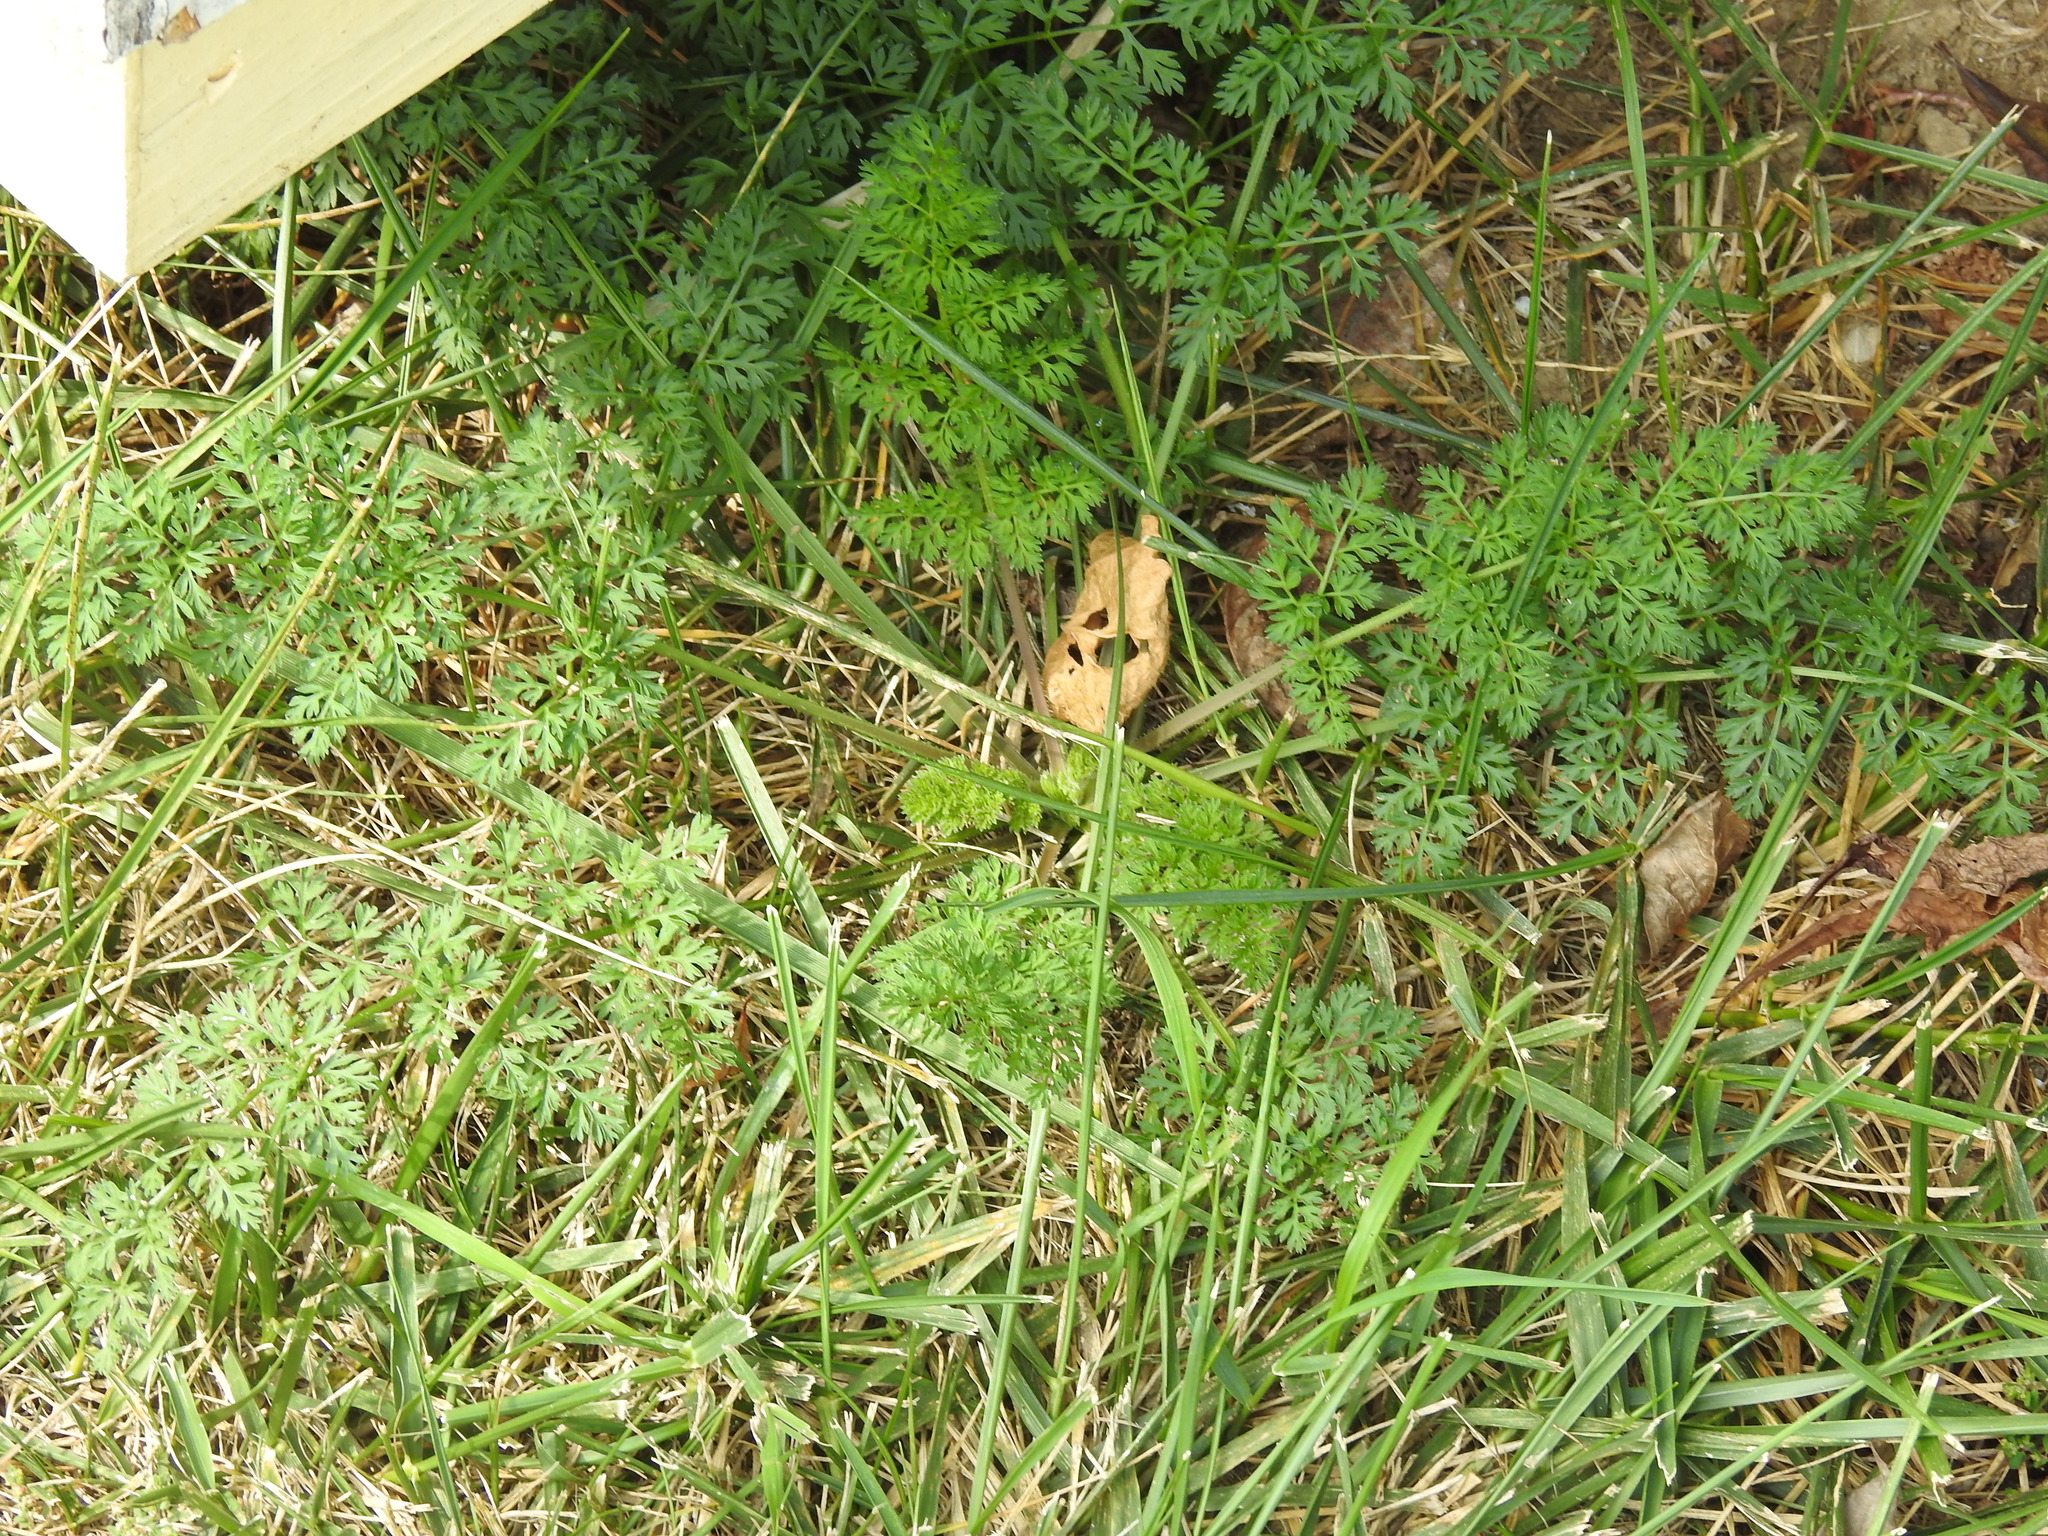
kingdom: Plantae
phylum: Tracheophyta
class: Magnoliopsida
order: Apiales
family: Apiaceae
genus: Daucus
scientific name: Daucus carota
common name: Wild carrot
